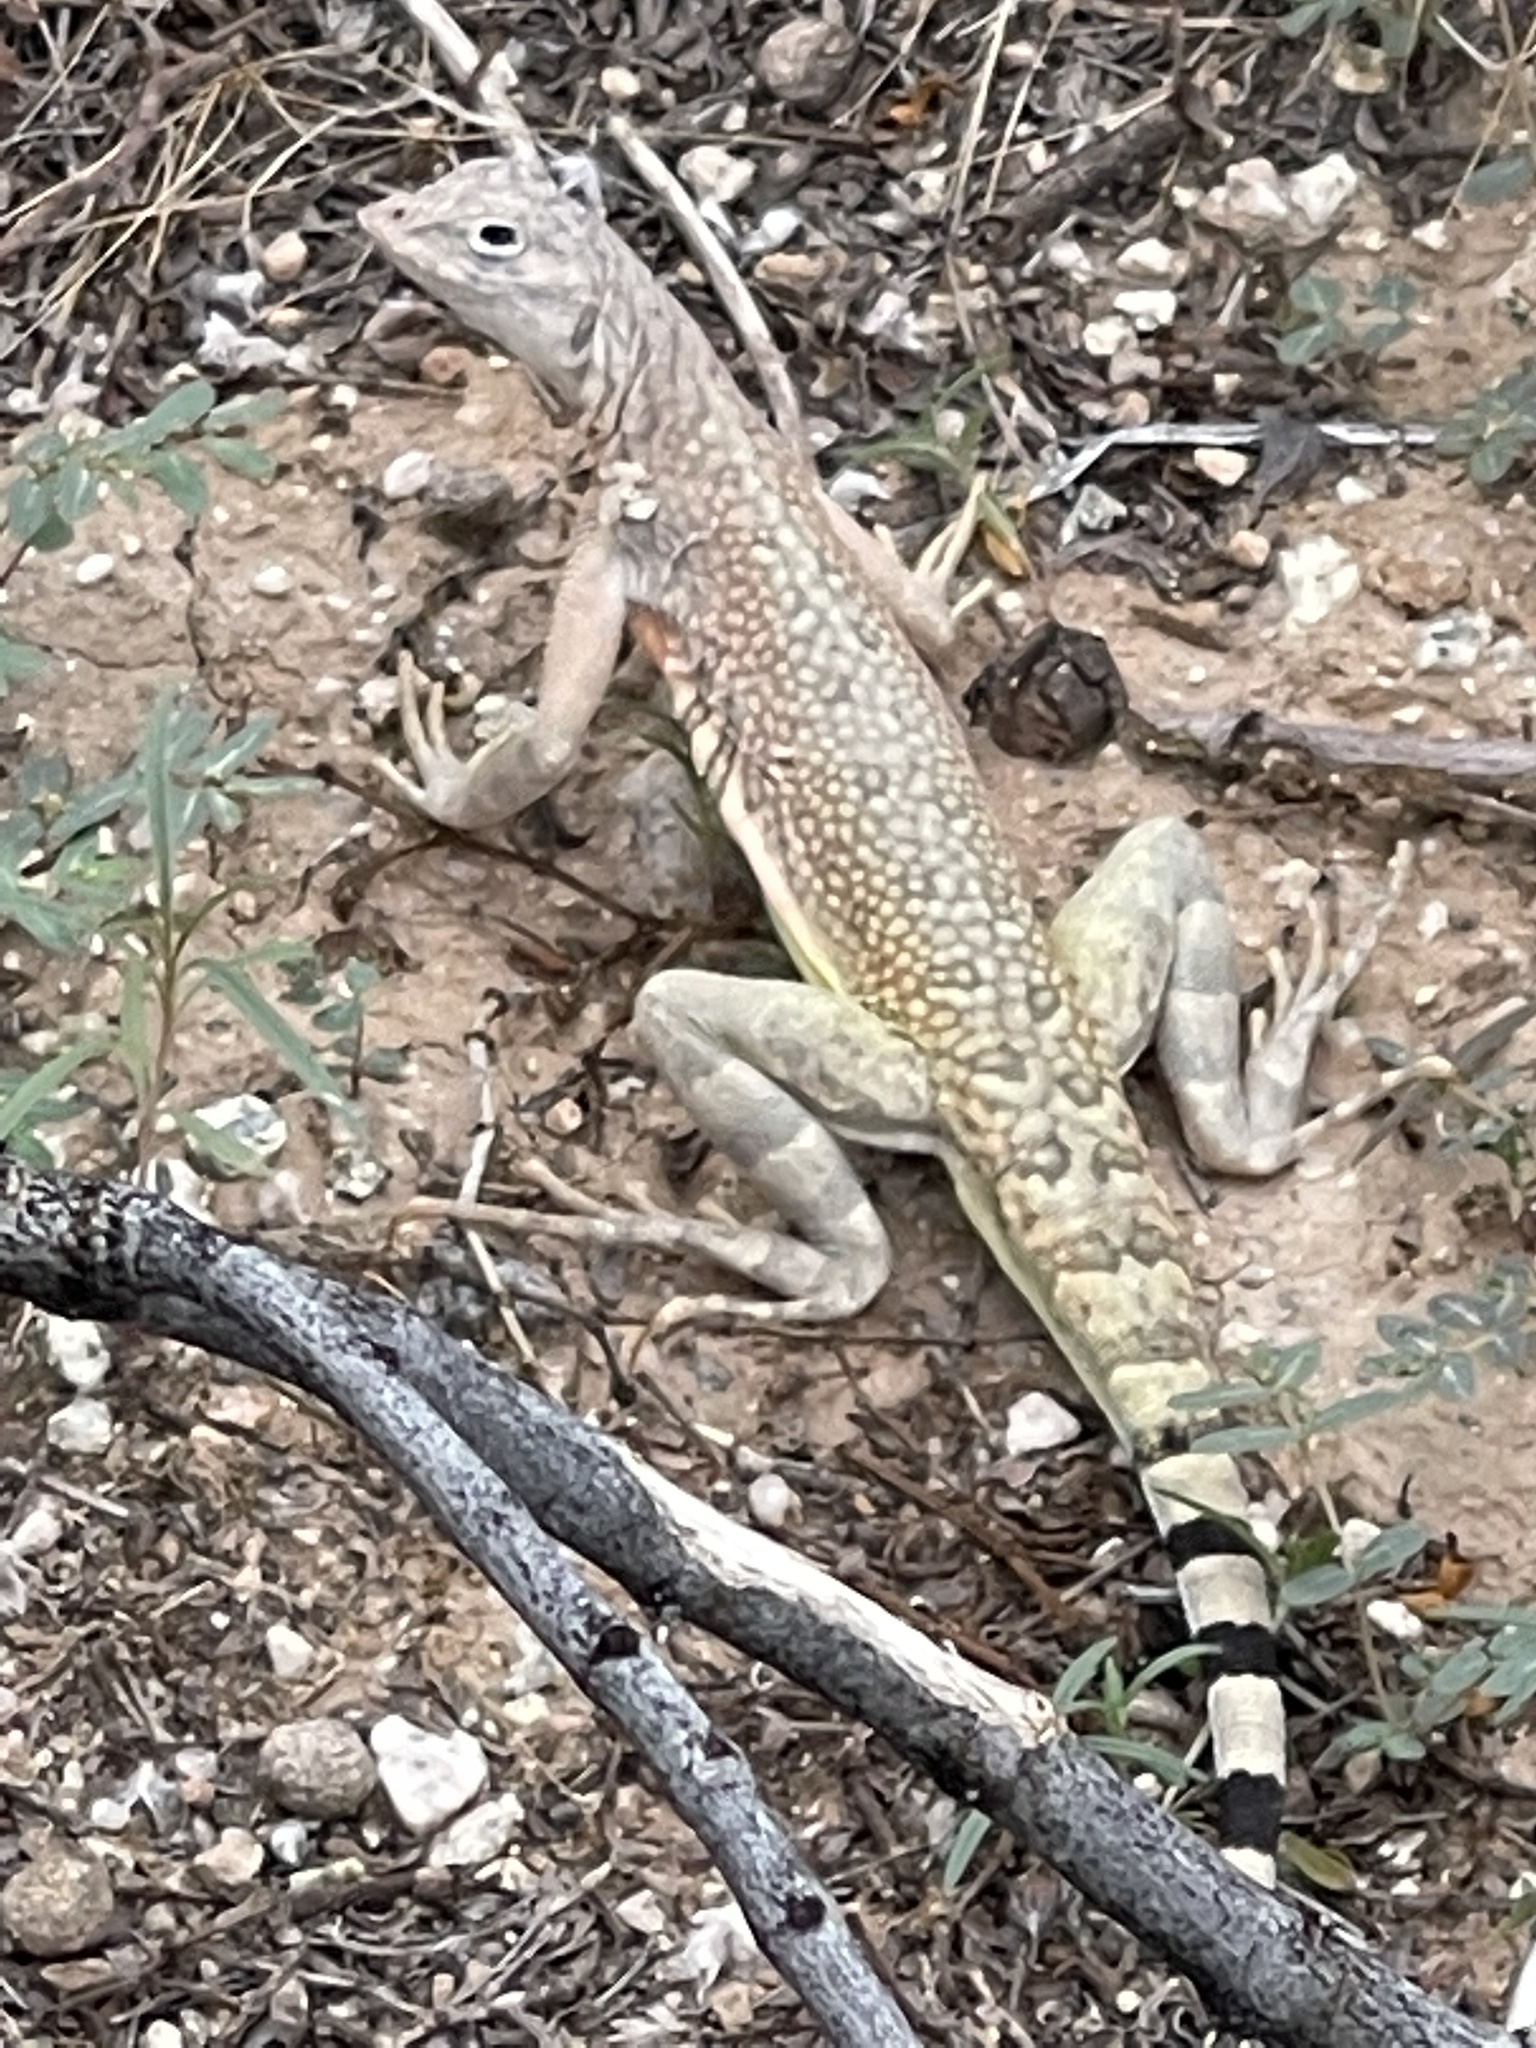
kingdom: Animalia
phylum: Chordata
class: Squamata
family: Phrynosomatidae
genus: Callisaurus
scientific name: Callisaurus draconoides
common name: Zebra-tailed lizard
